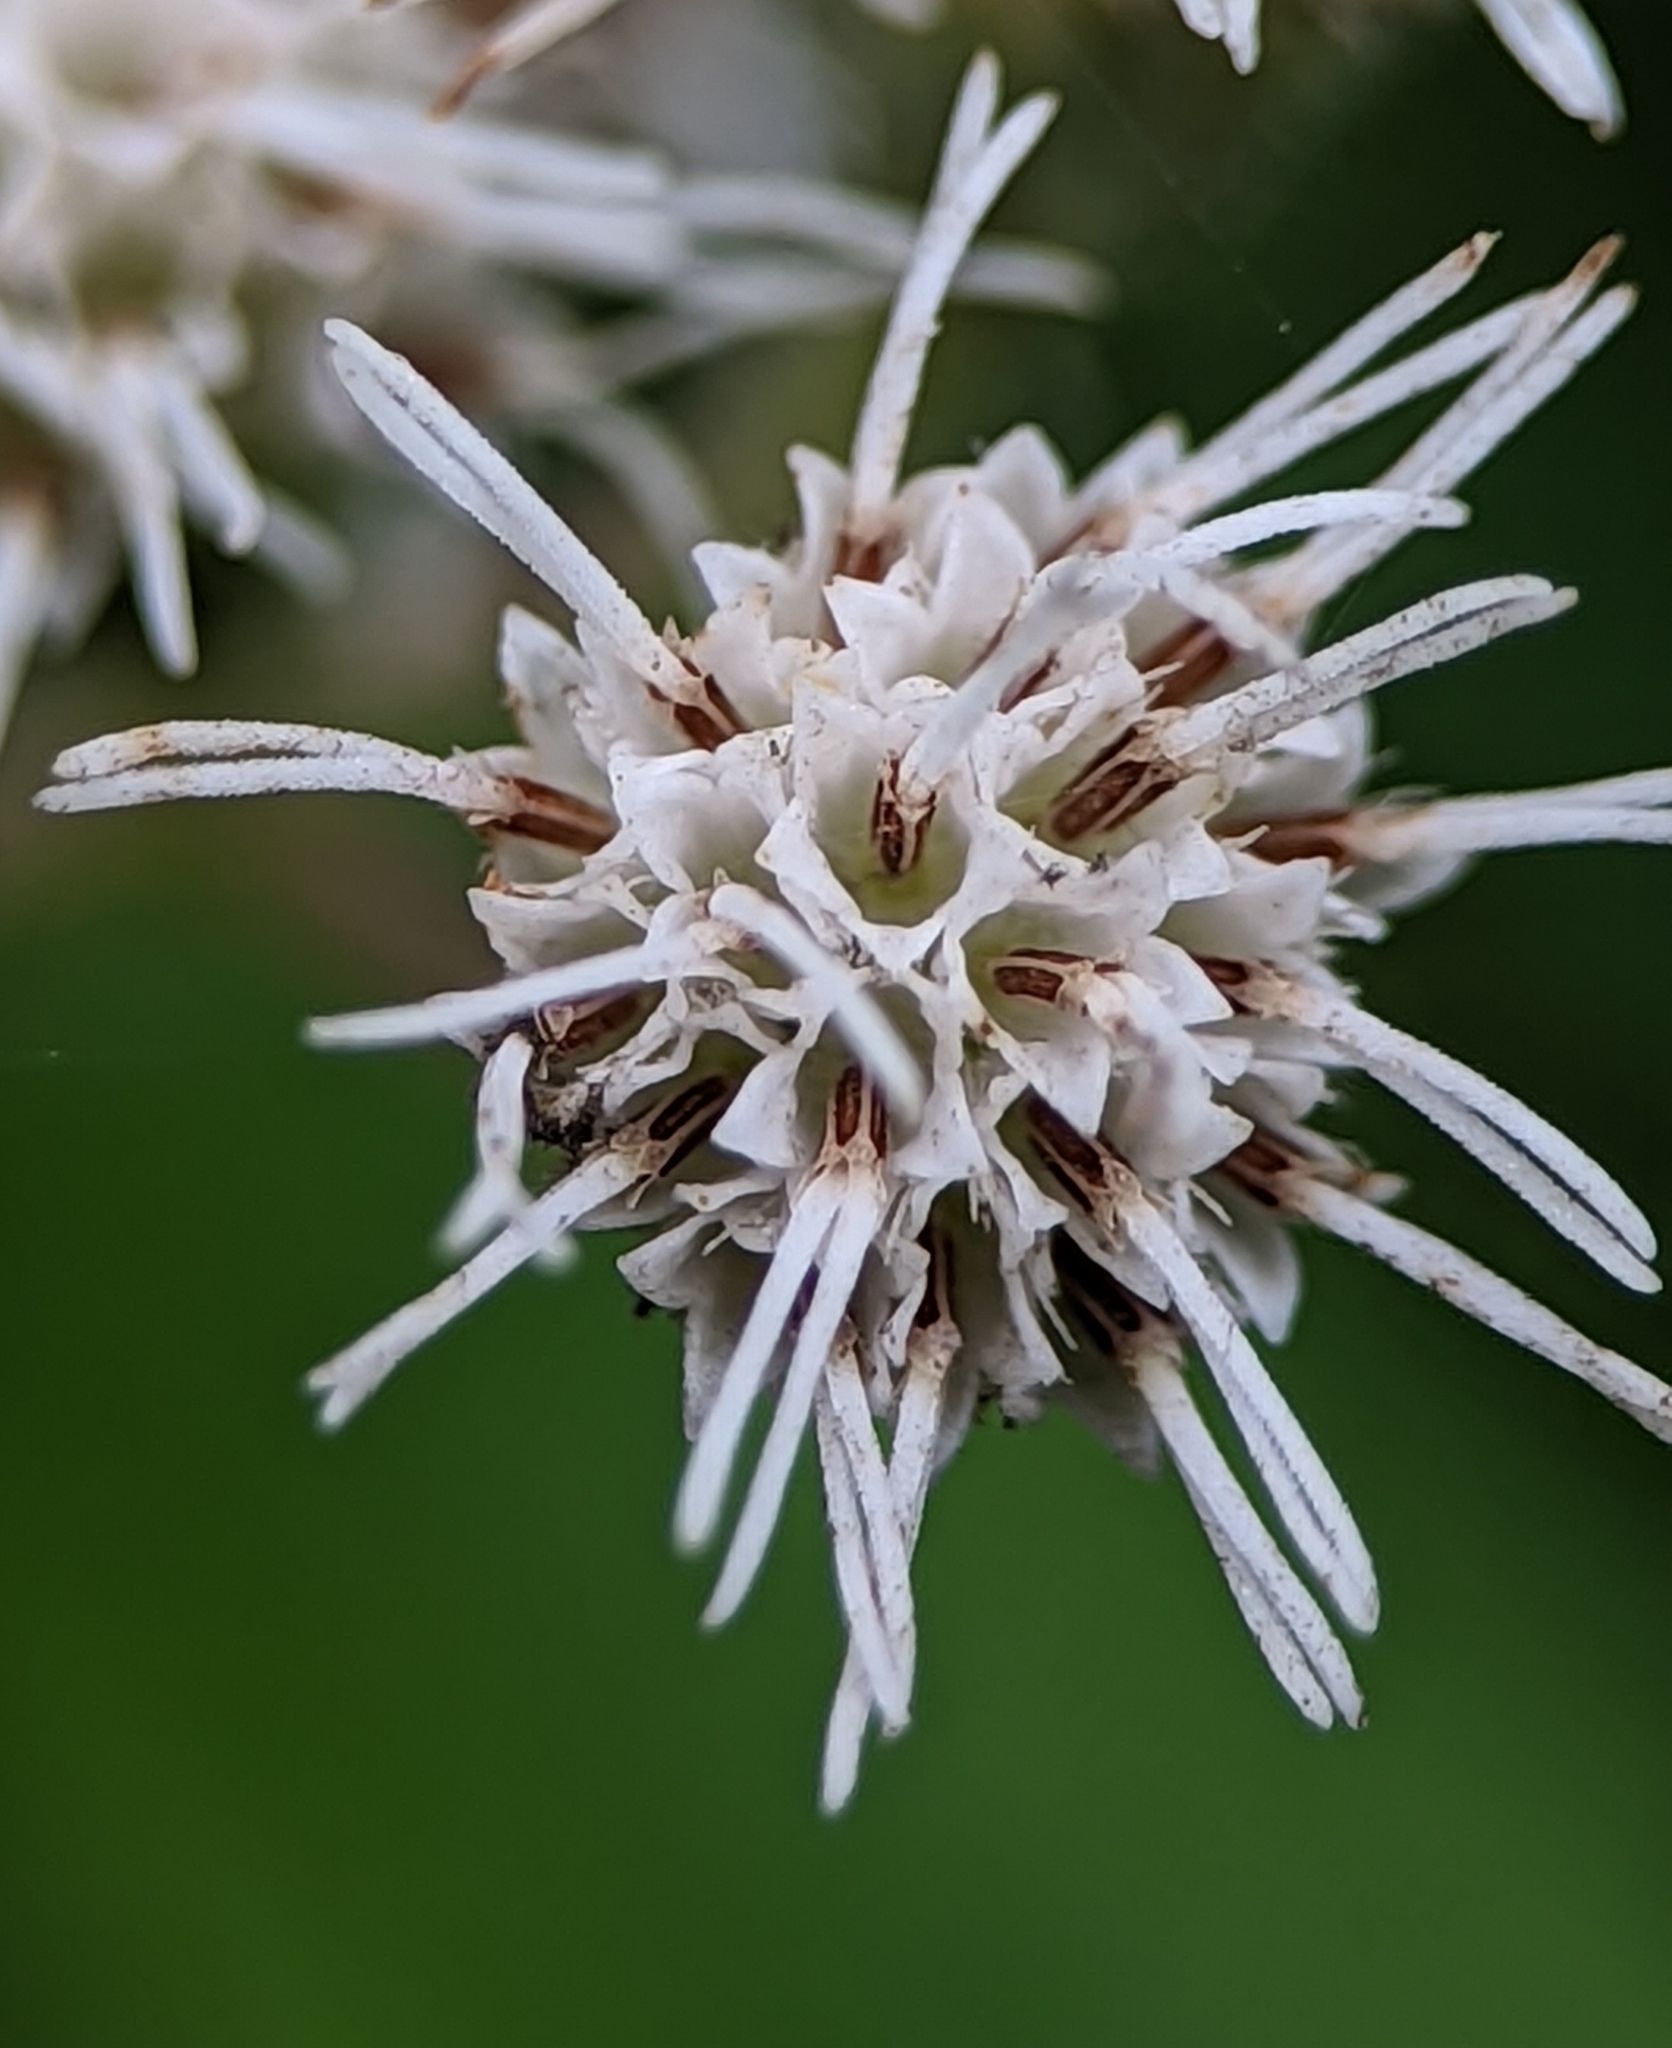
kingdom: Plantae
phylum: Tracheophyta
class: Magnoliopsida
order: Asterales
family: Asteraceae
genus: Eupatorium
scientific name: Eupatorium perfoliatum
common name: Boneset
